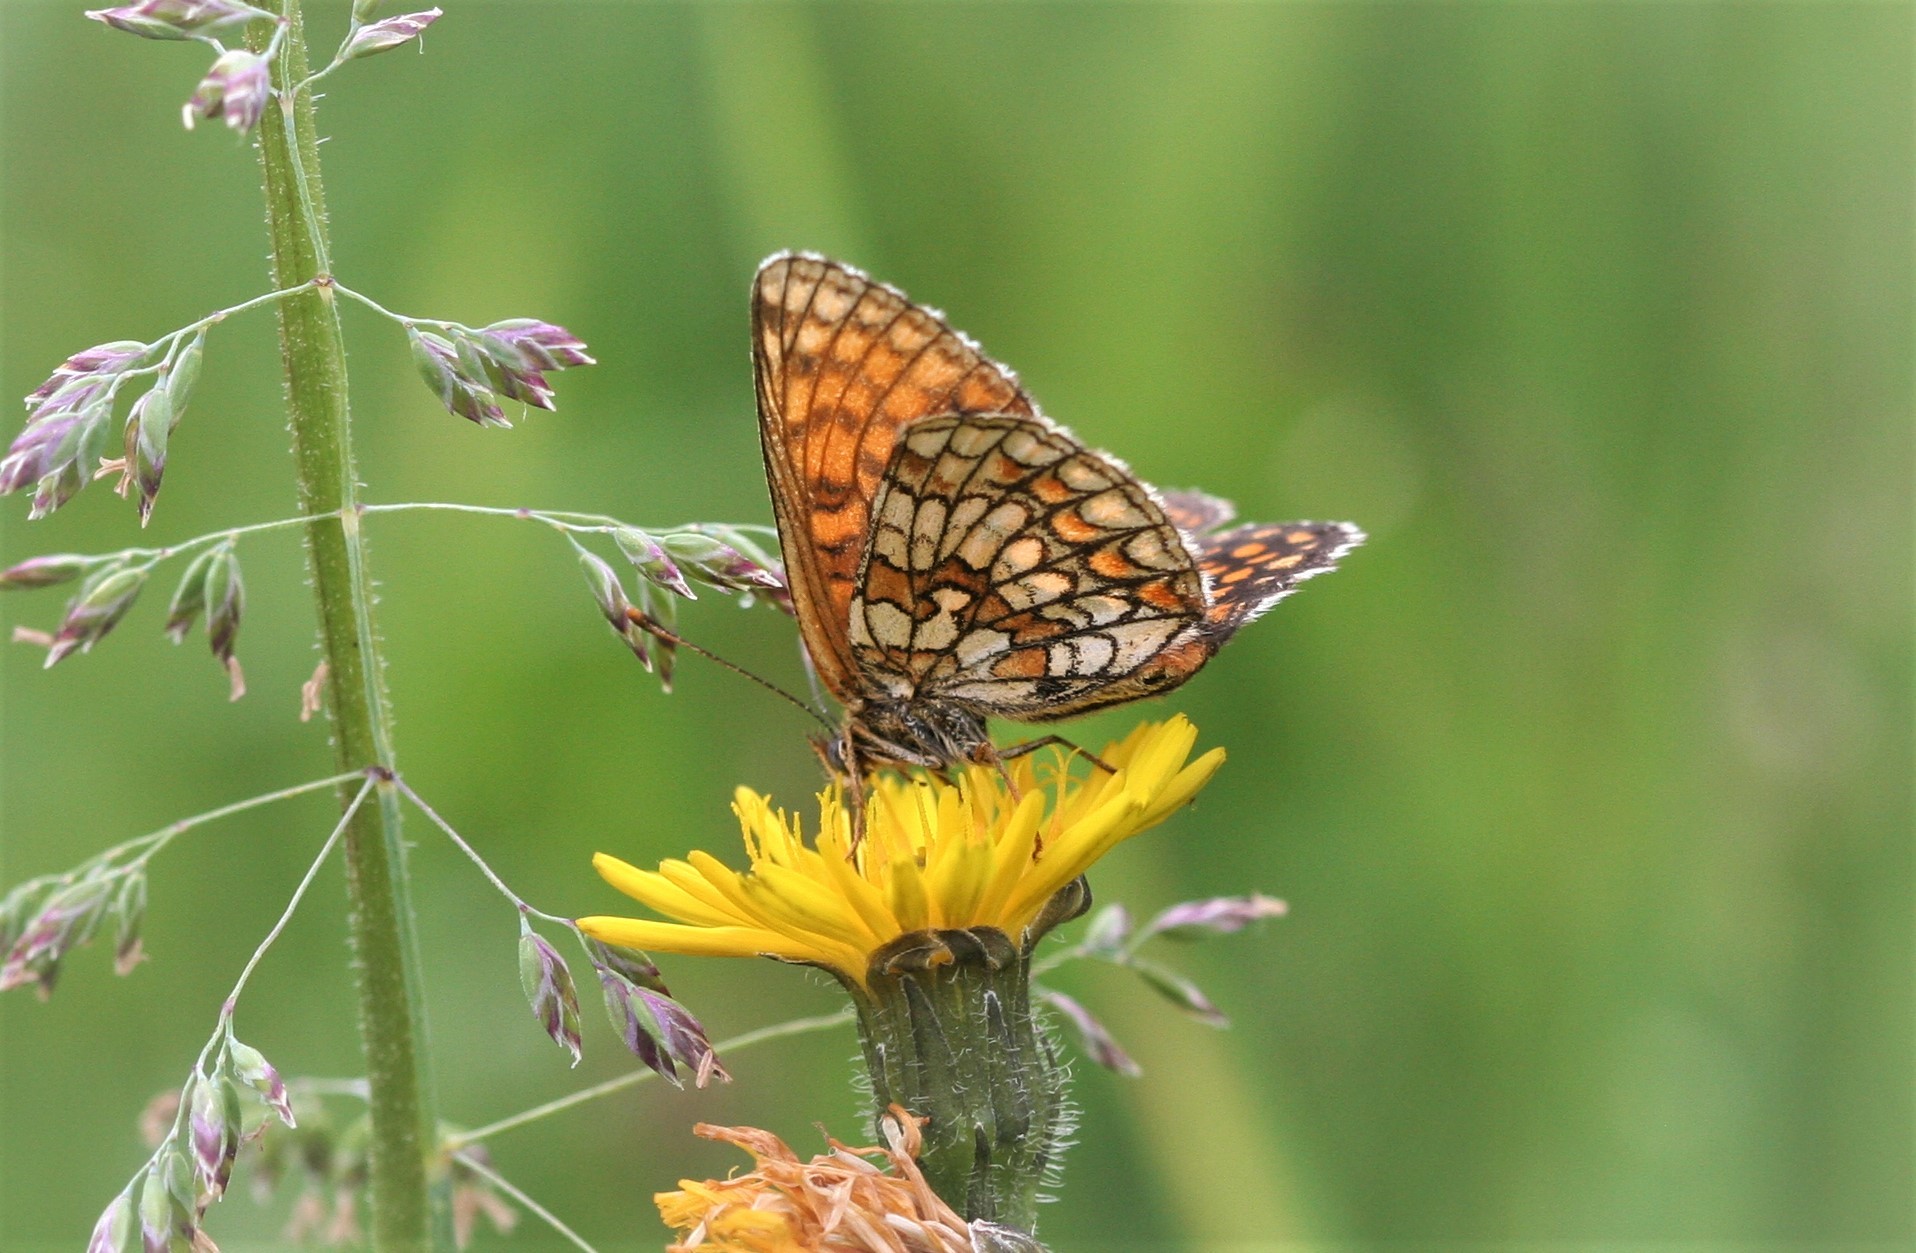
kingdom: Animalia
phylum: Arthropoda
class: Insecta
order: Lepidoptera
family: Nymphalidae
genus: Melitaea
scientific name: Melitaea athalia
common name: Heath fritillary
